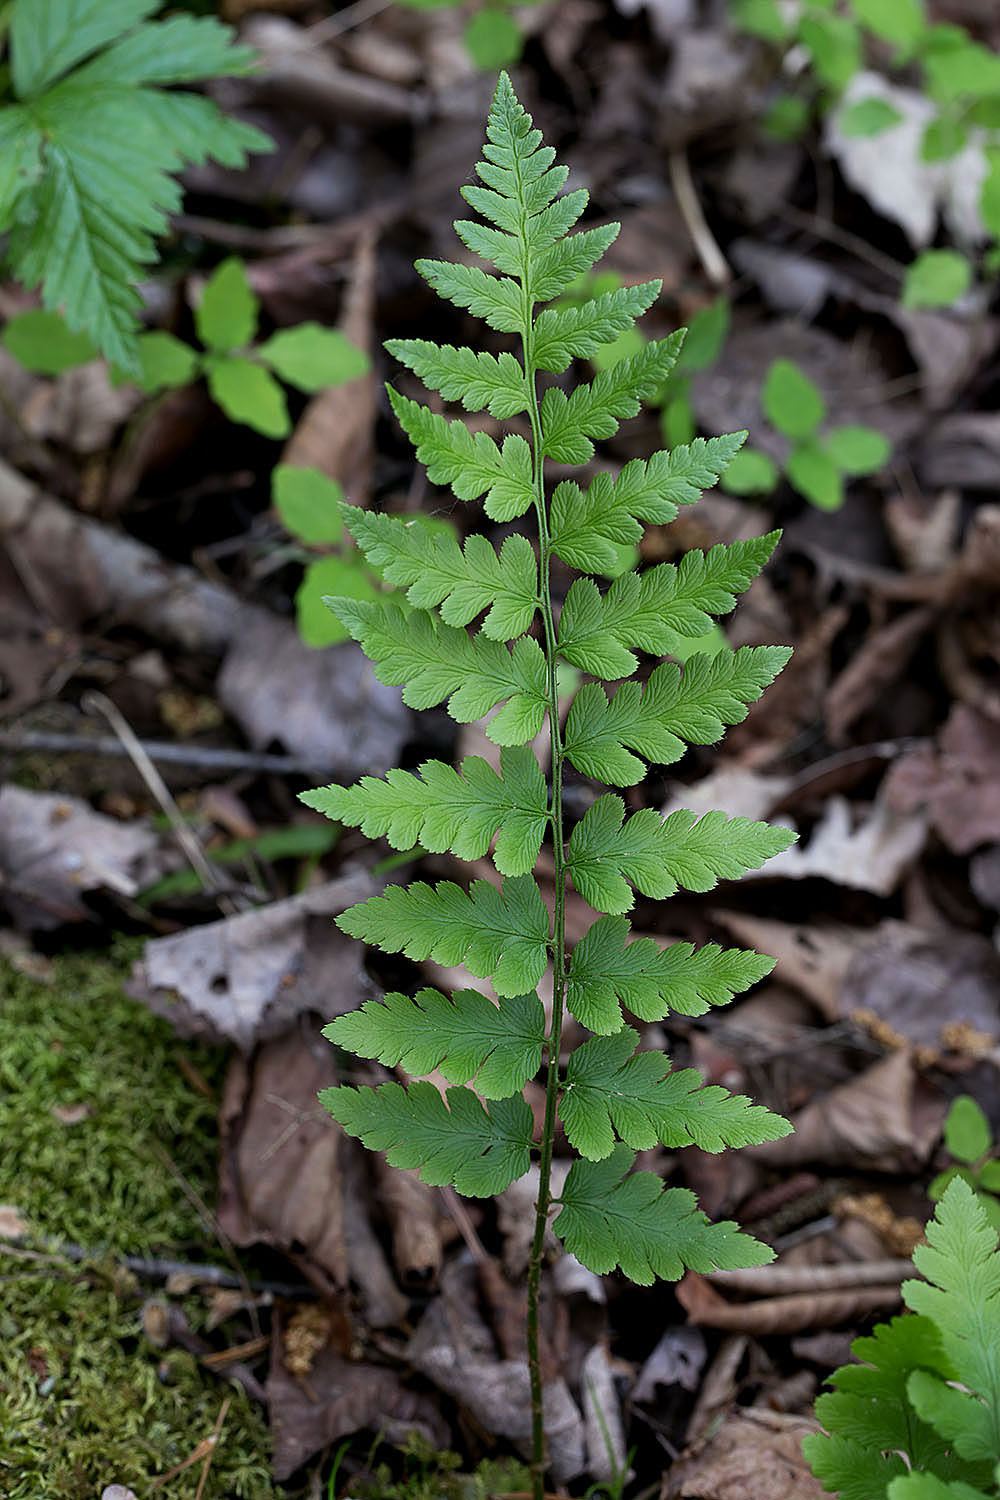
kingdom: Plantae
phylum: Tracheophyta
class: Polypodiopsida
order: Polypodiales
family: Dryopteridaceae
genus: Dryopteris
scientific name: Dryopteris cristata
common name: Crested wood fern
